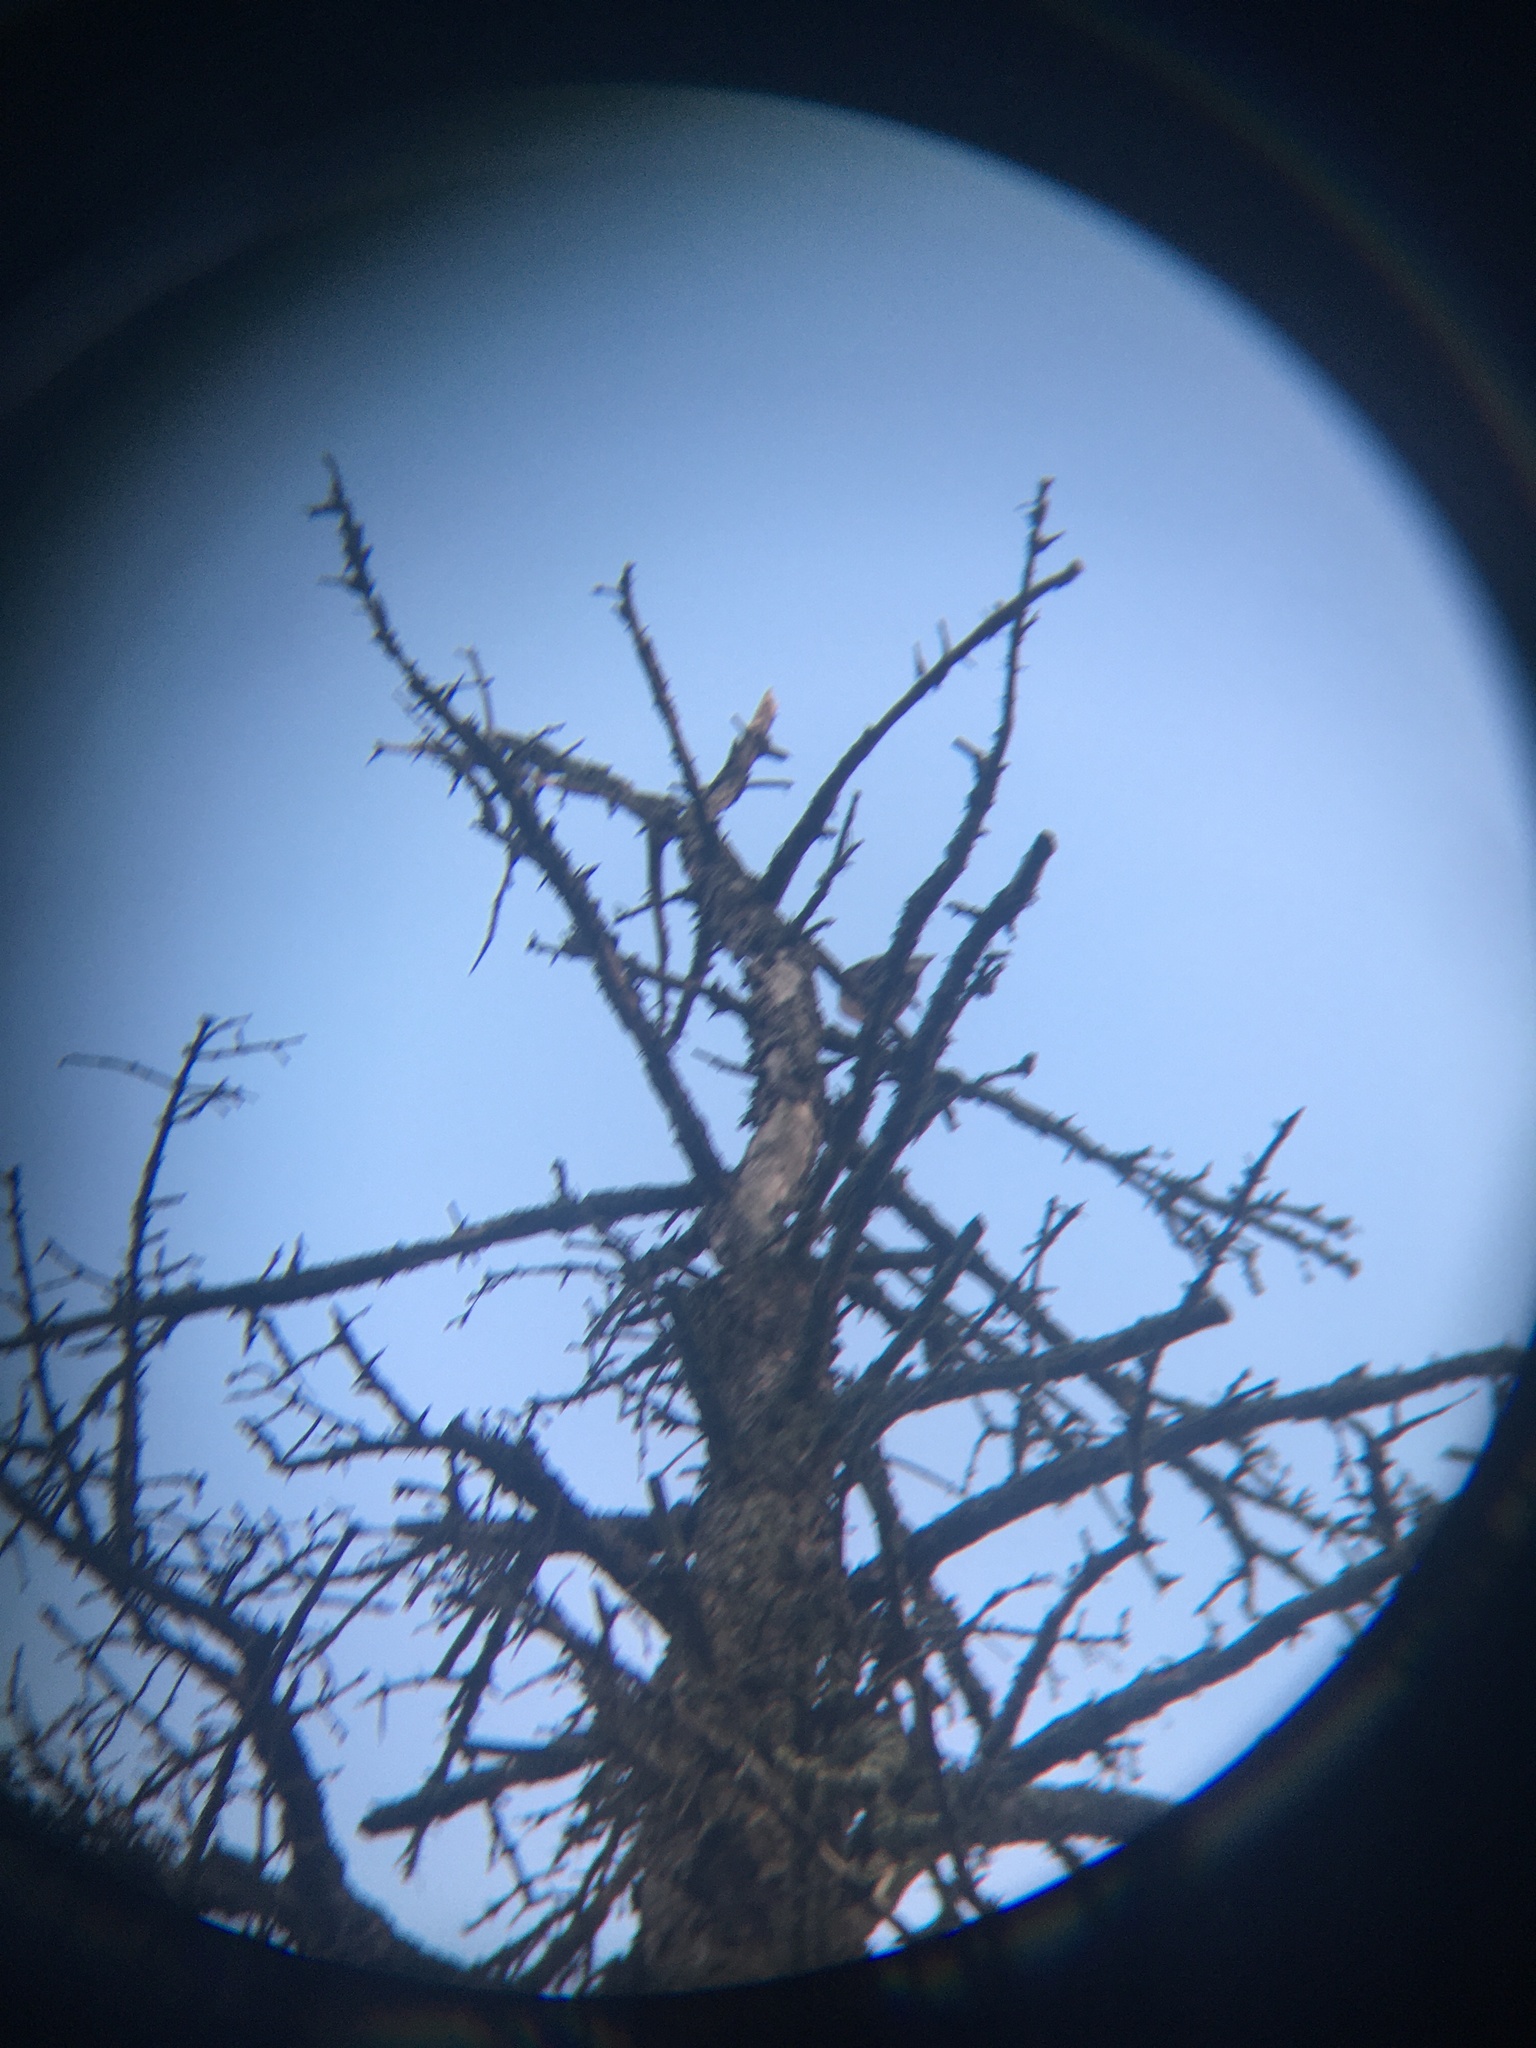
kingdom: Animalia
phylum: Chordata
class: Aves
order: Columbiformes
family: Columbidae
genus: Zenaida
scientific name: Zenaida macroura
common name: Mourning dove
